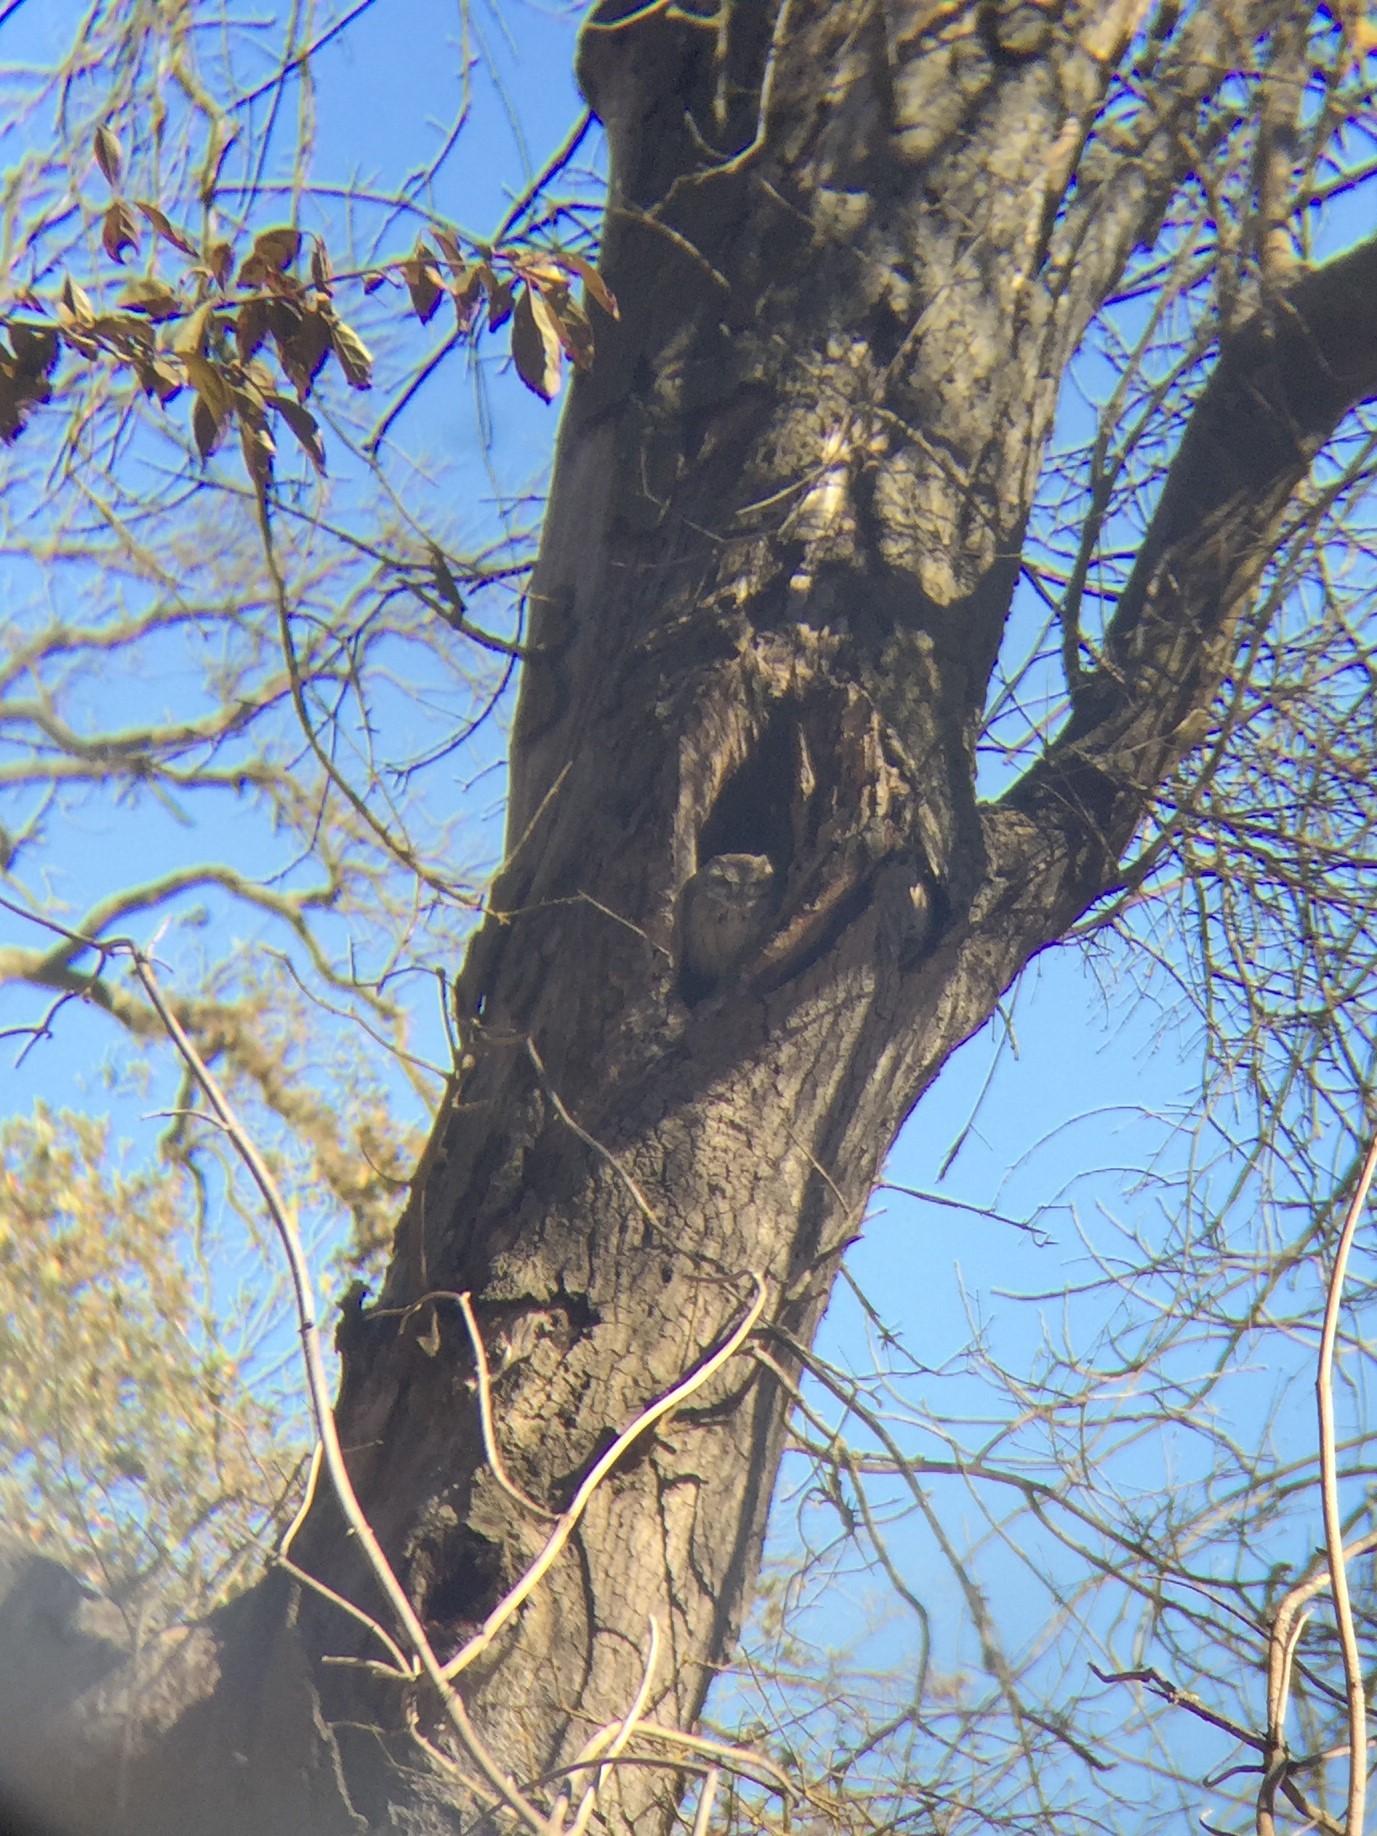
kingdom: Animalia
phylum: Chordata
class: Aves
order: Strigiformes
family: Strigidae
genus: Megascops
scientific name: Megascops kennicottii
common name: Western screech-owl
